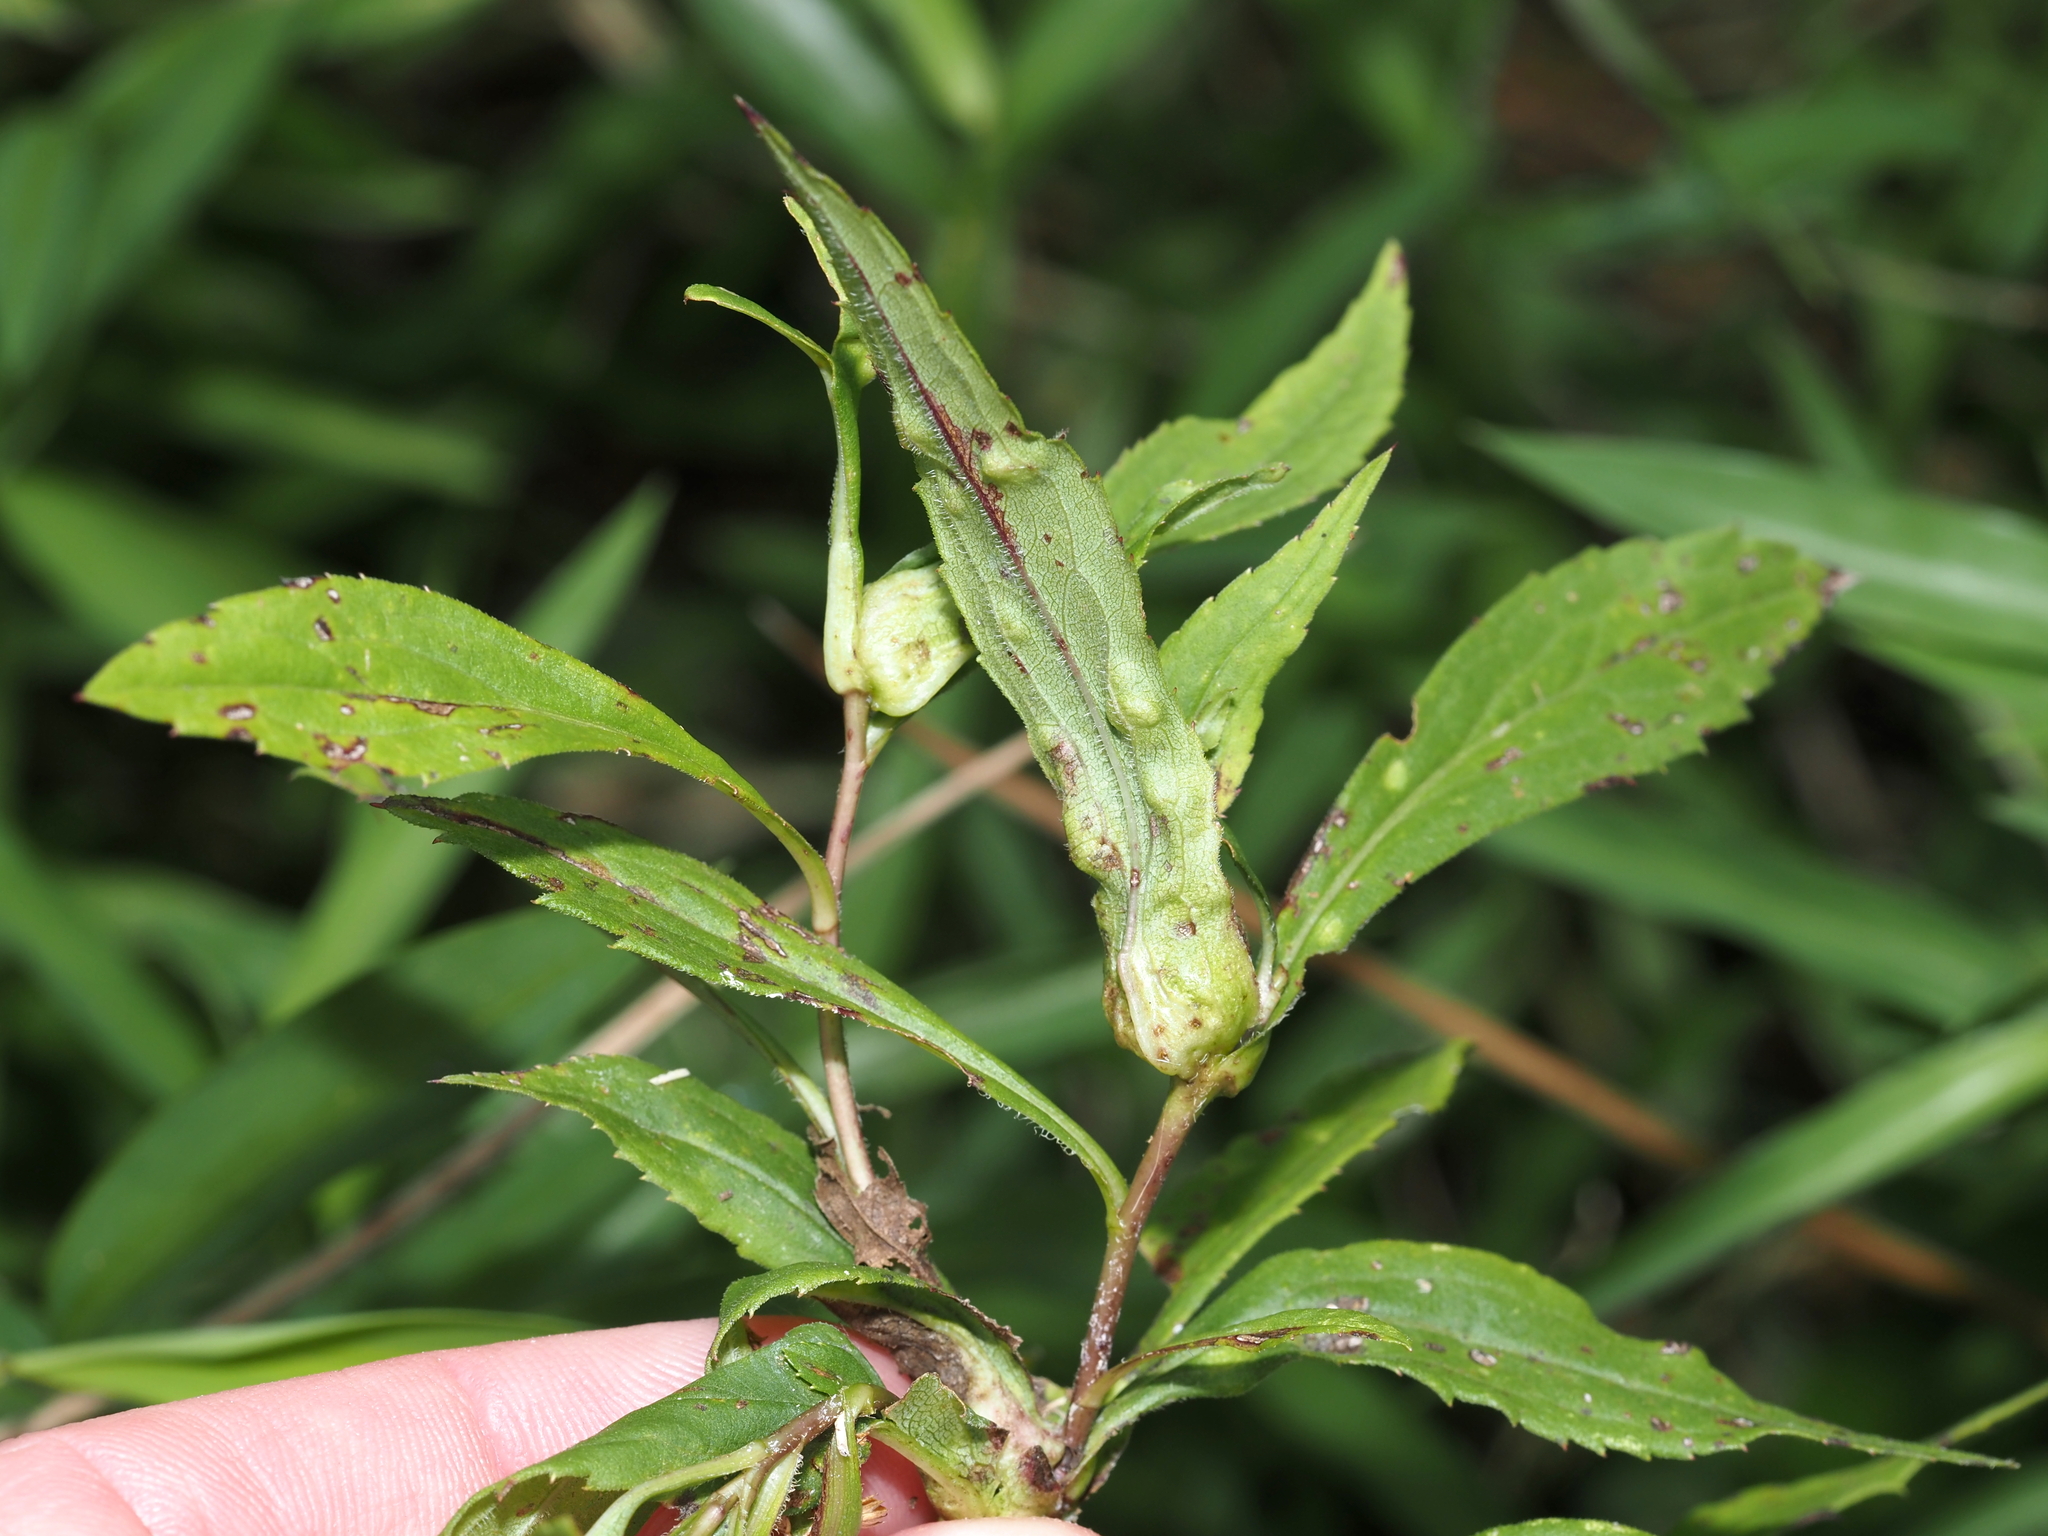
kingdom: Animalia
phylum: Arthropoda
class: Insecta
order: Diptera
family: Cecidomyiidae
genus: Dasineura
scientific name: Dasineura folliculi
